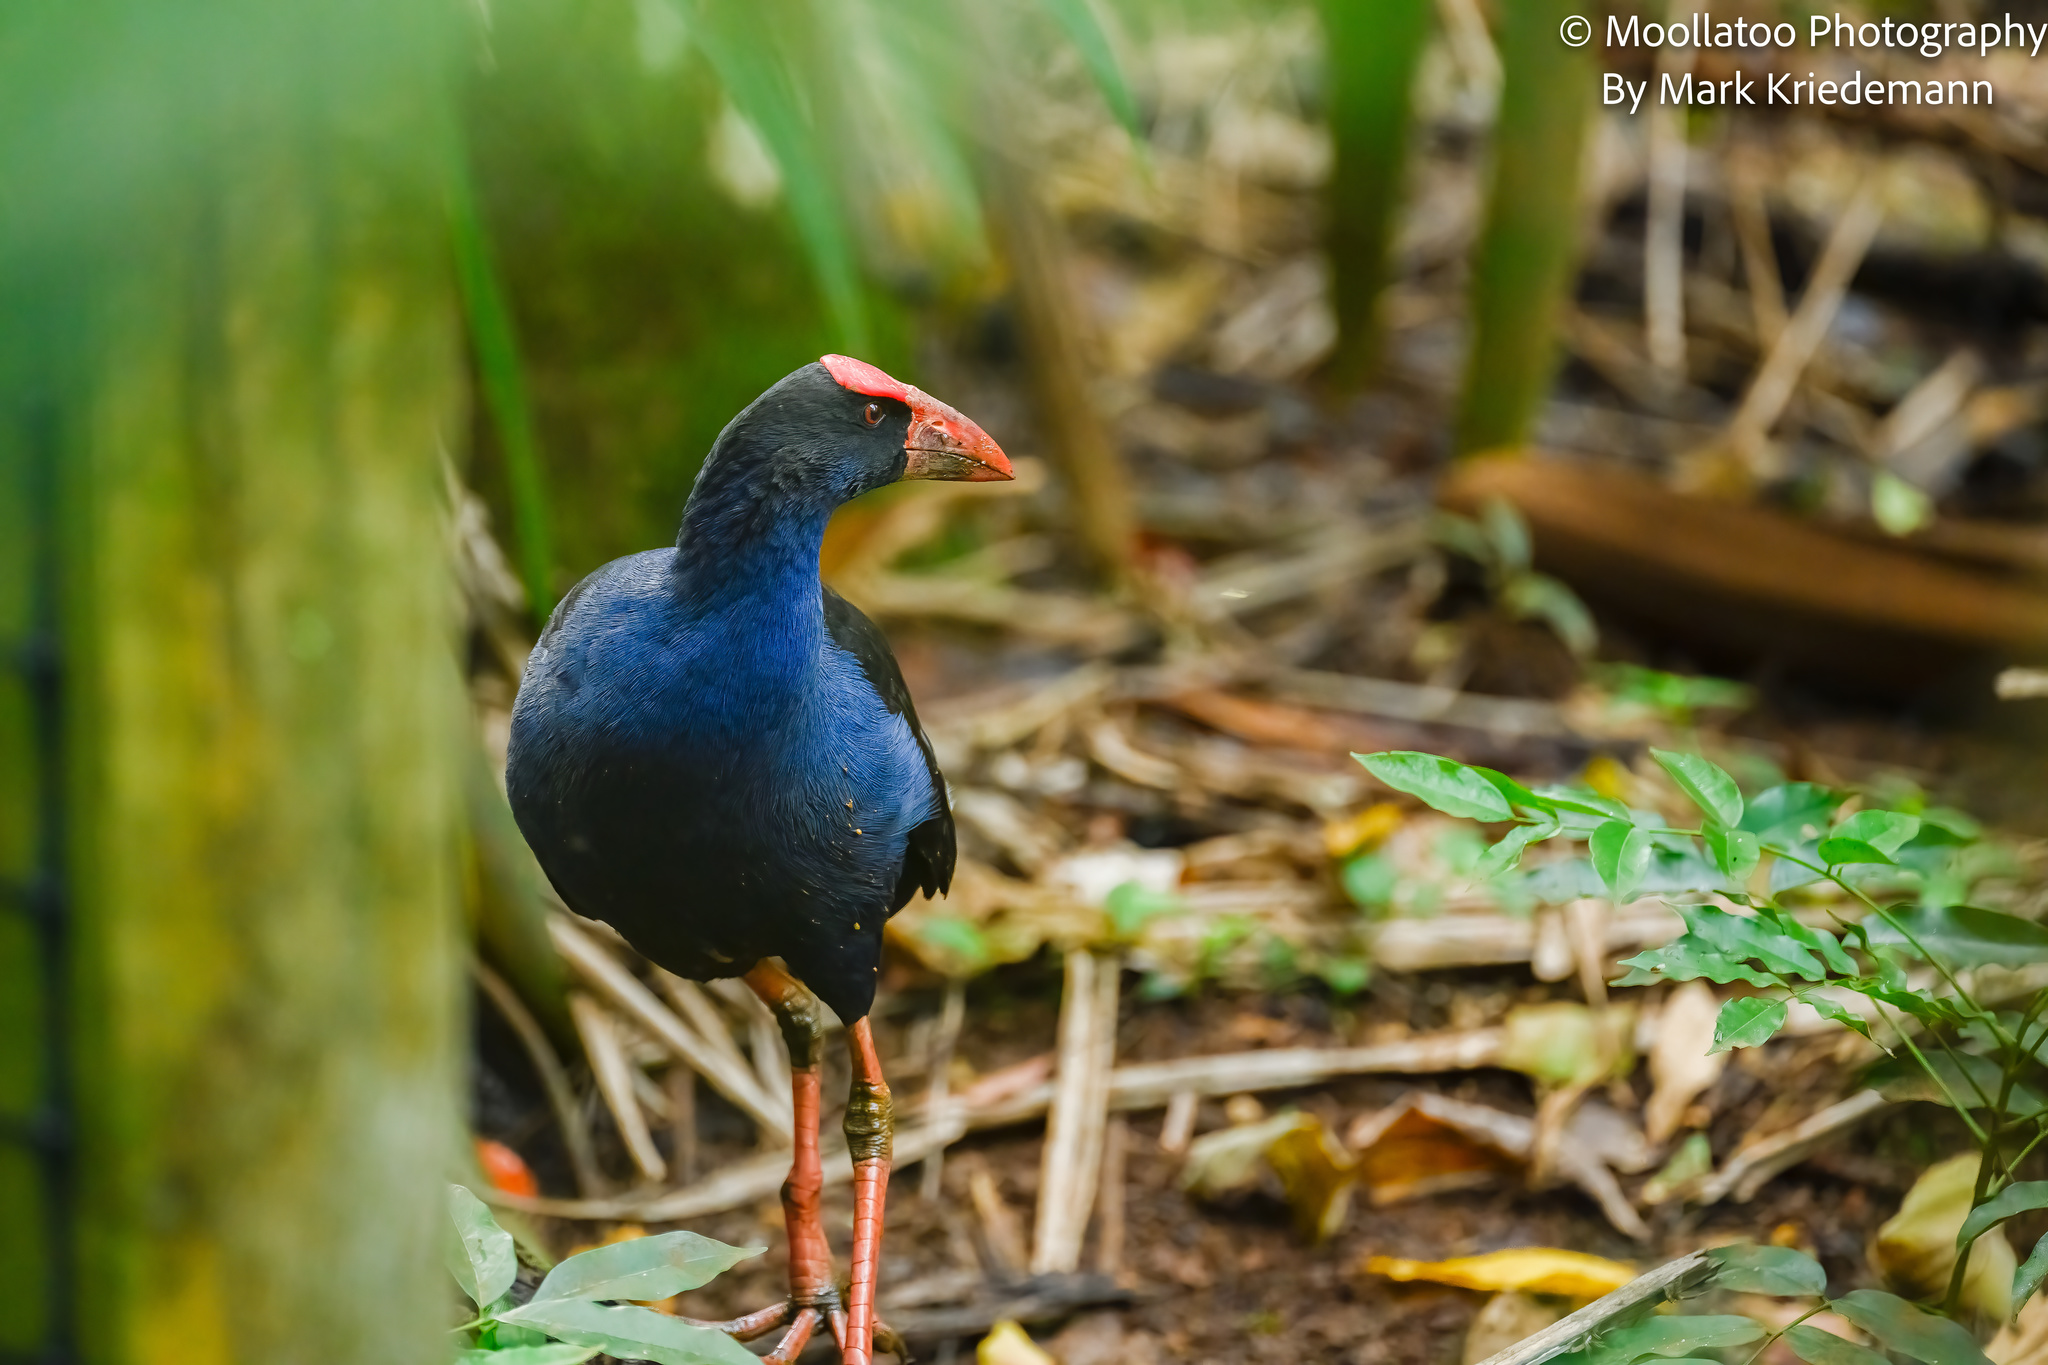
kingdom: Animalia
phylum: Chordata
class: Aves
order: Gruiformes
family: Rallidae
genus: Porphyrio
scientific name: Porphyrio melanotus
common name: Australasian swamphen
